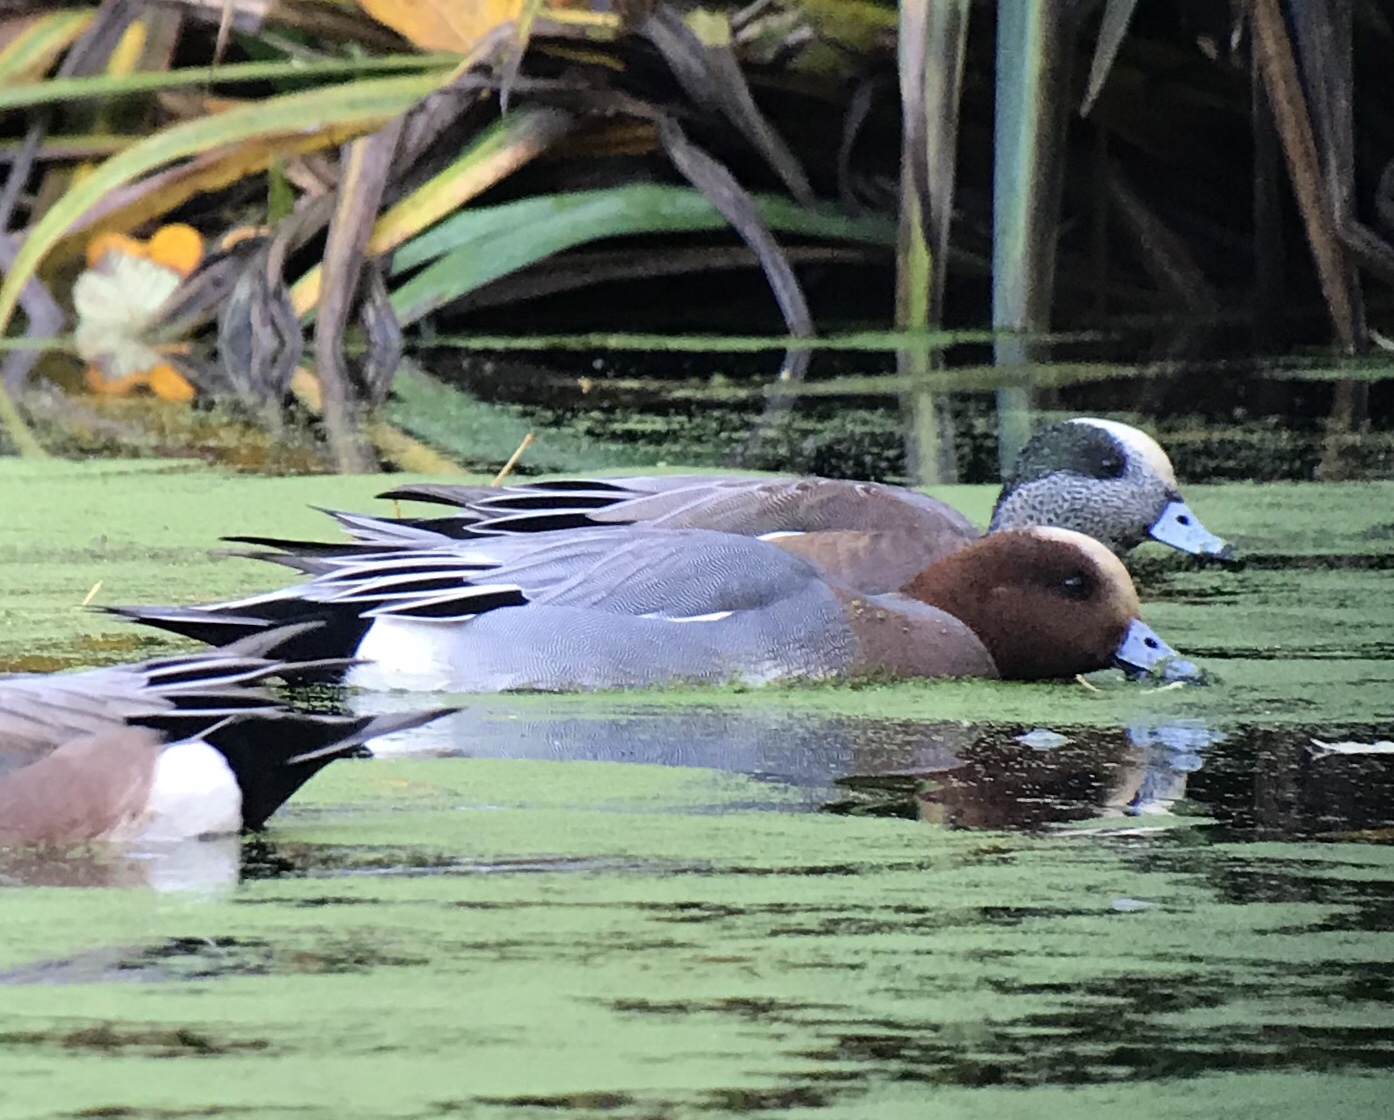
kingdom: Animalia
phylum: Chordata
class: Aves
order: Anseriformes
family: Anatidae
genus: Mareca
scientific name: Mareca penelope
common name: Eurasian wigeon
